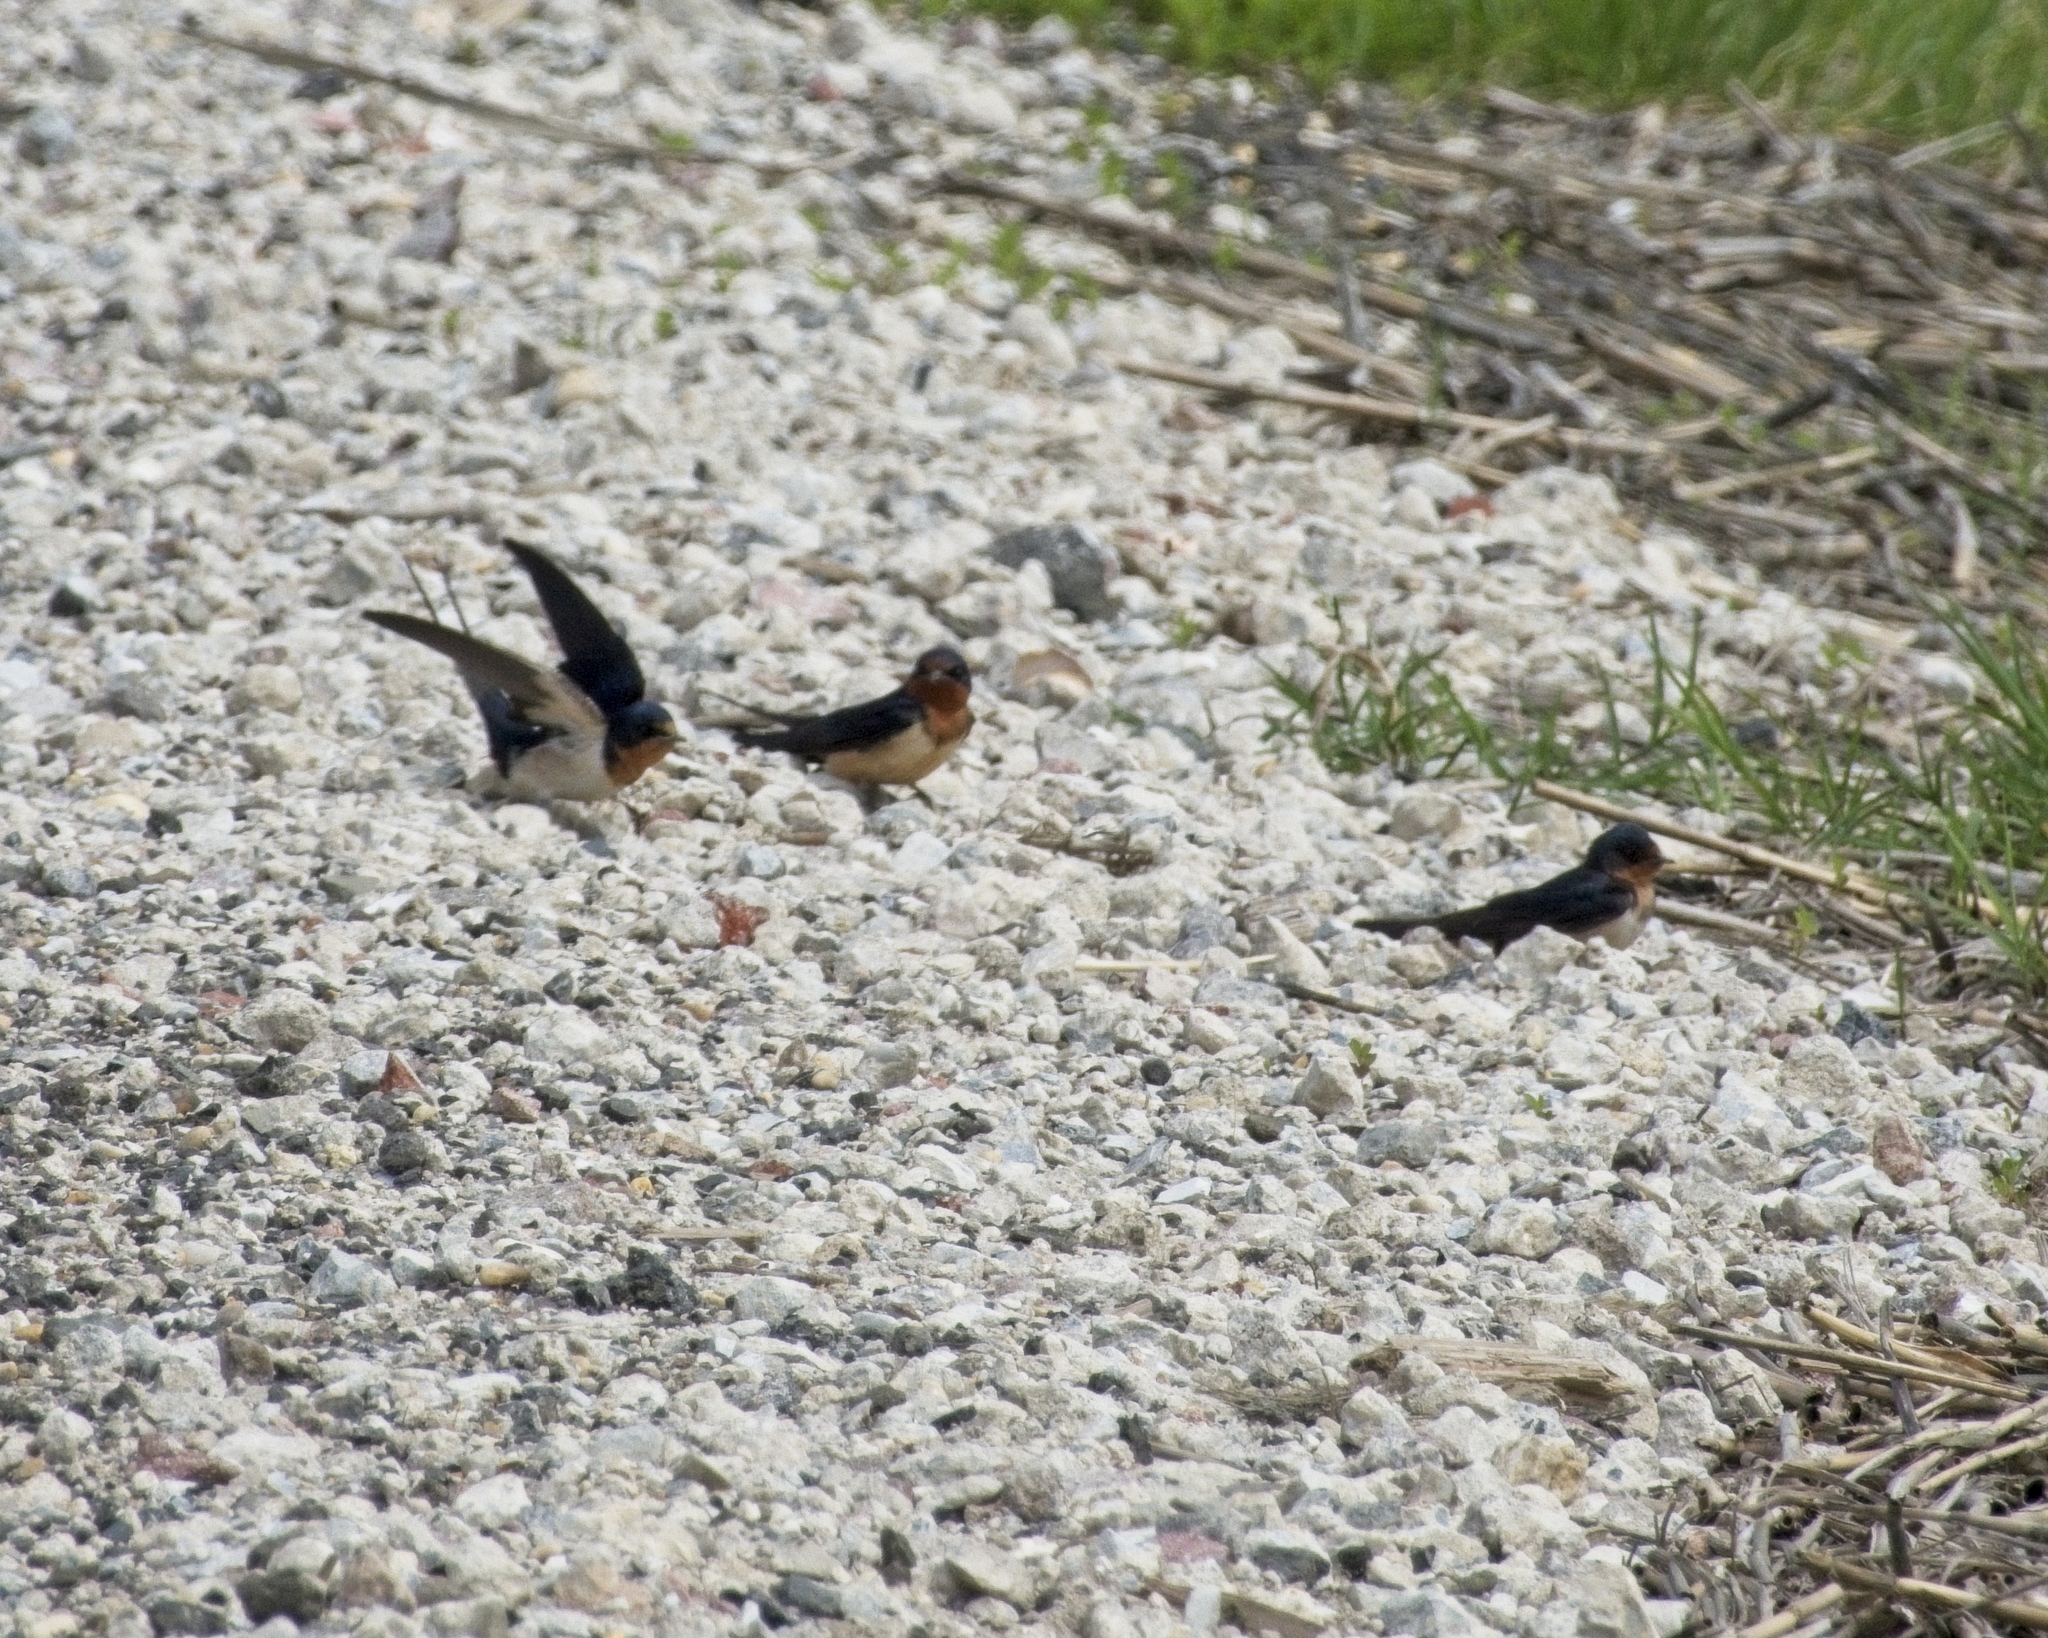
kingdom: Animalia
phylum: Chordata
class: Aves
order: Passeriformes
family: Hirundinidae
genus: Hirundo
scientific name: Hirundo rustica
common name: Barn swallow
